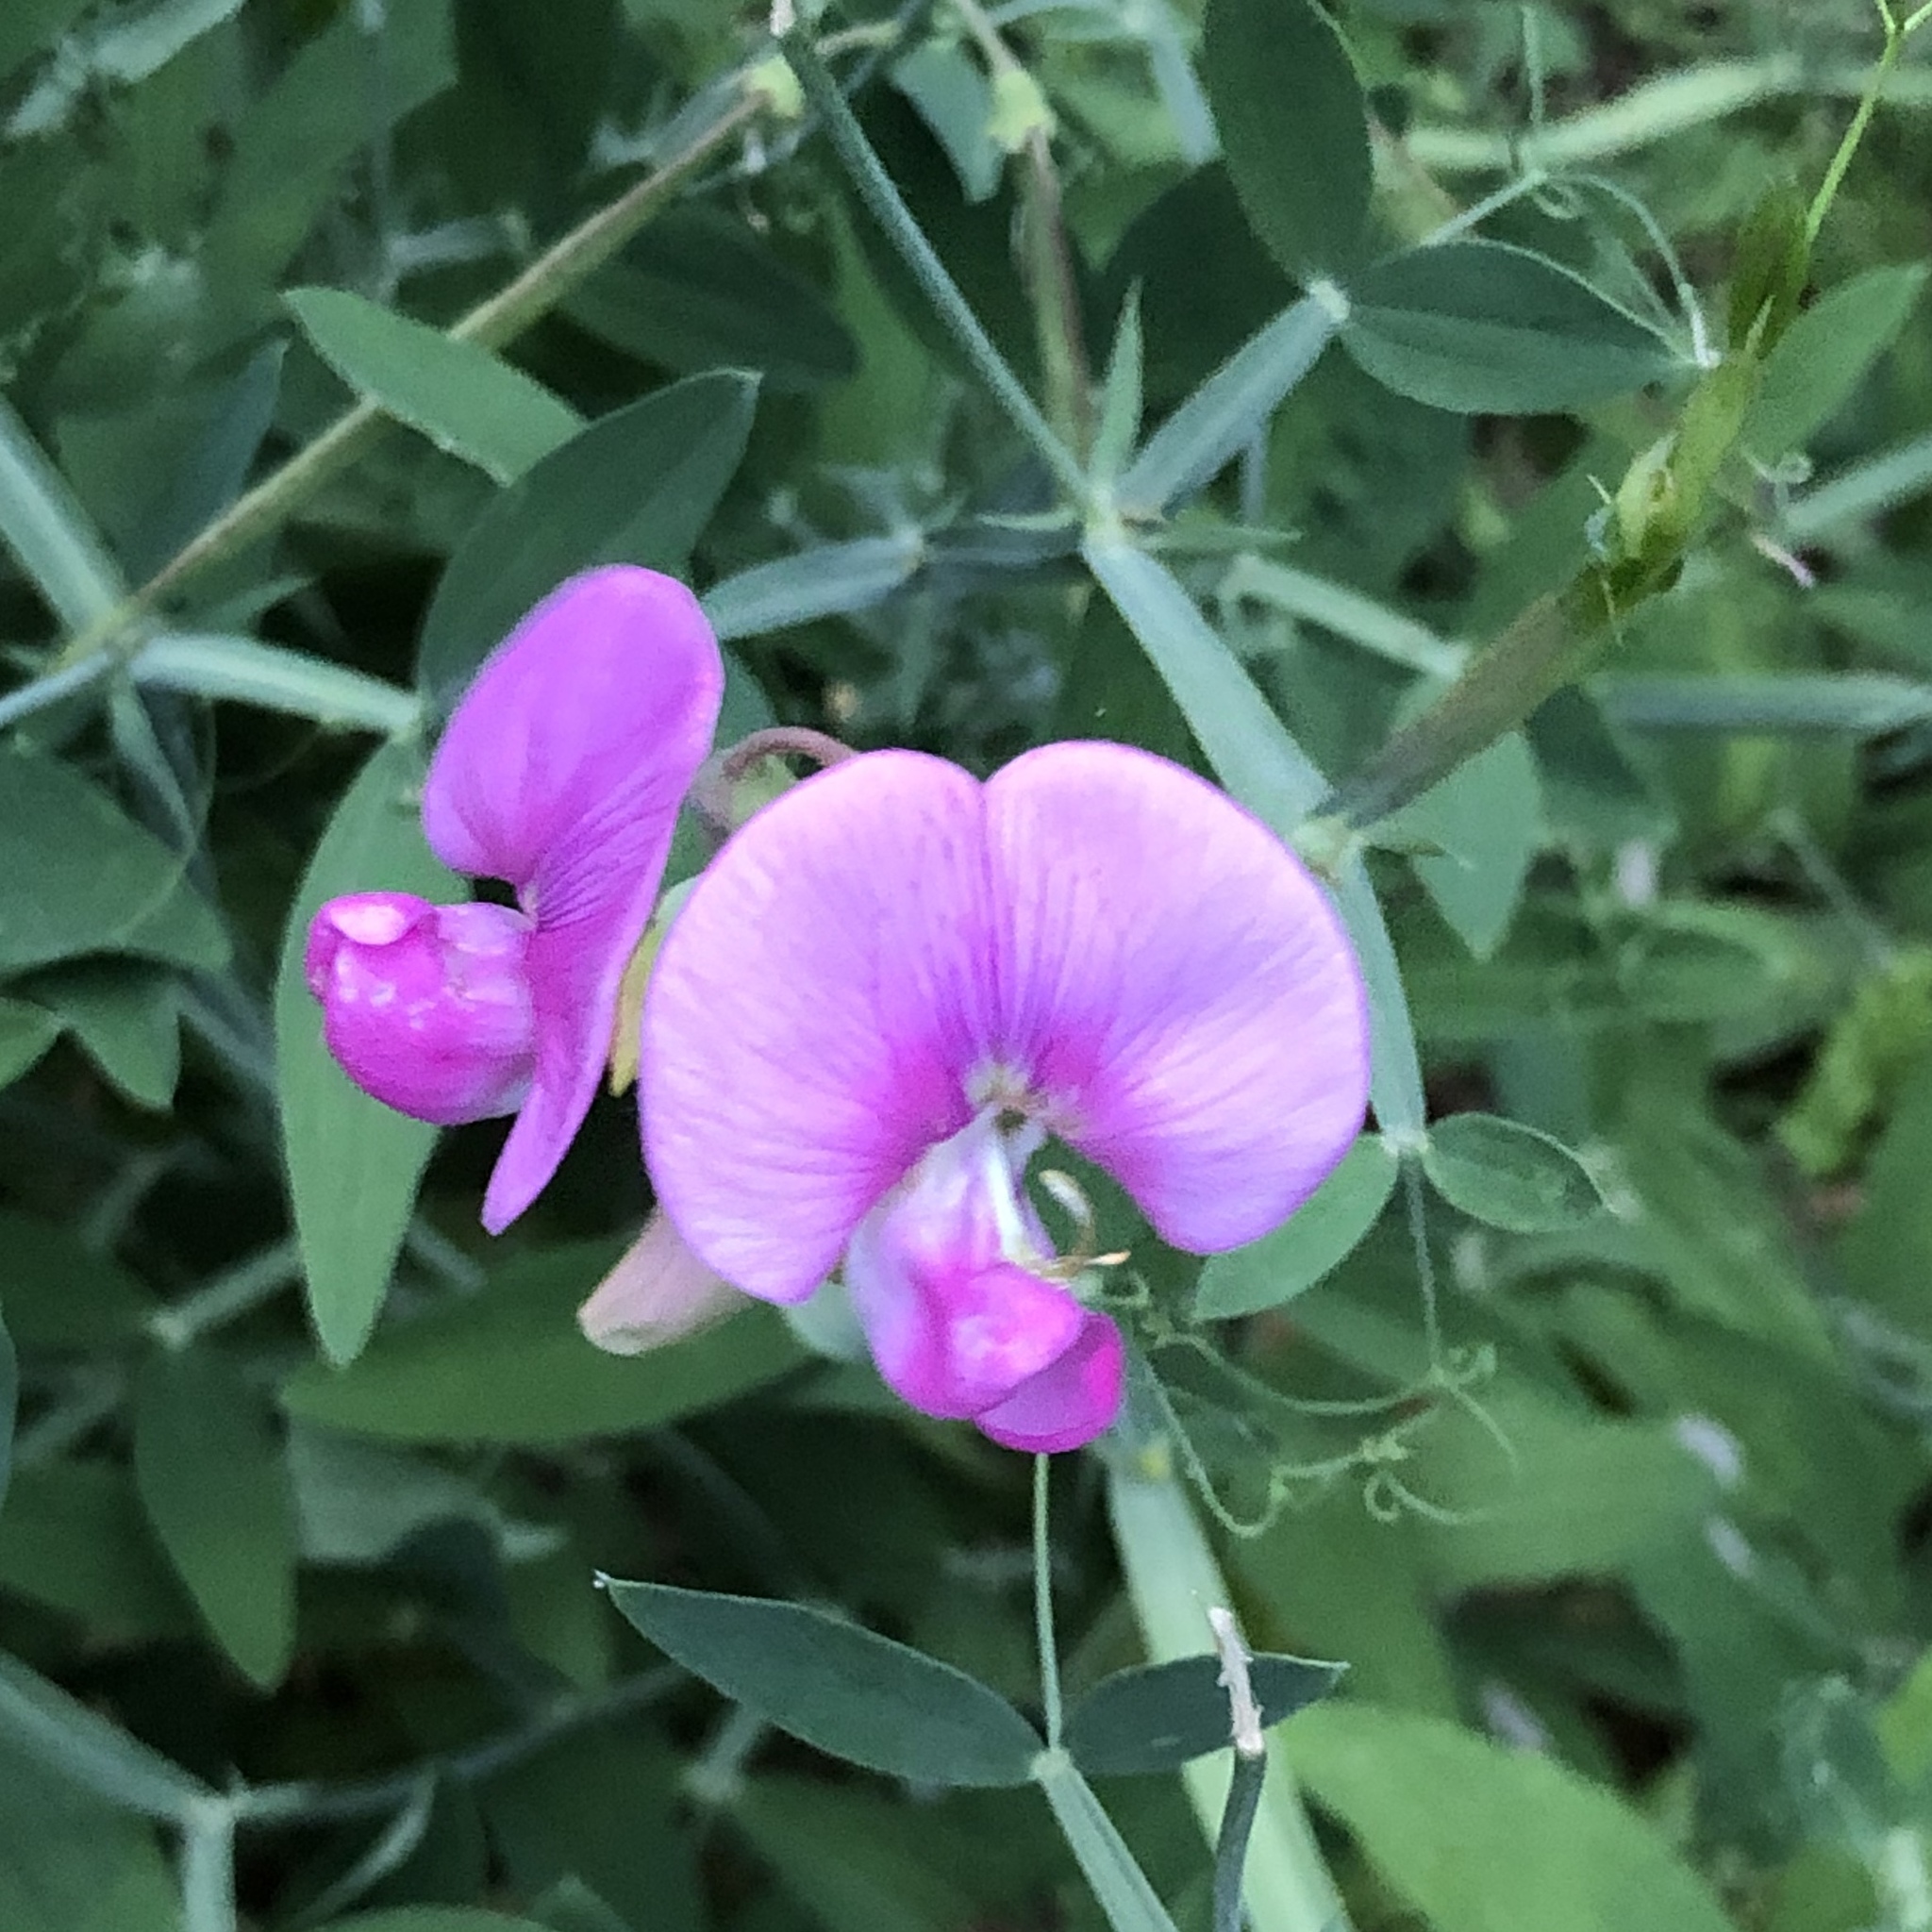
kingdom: Plantae
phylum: Tracheophyta
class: Magnoliopsida
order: Fabales
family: Fabaceae
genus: Lathyrus
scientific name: Lathyrus latifolius
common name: Perennial pea
